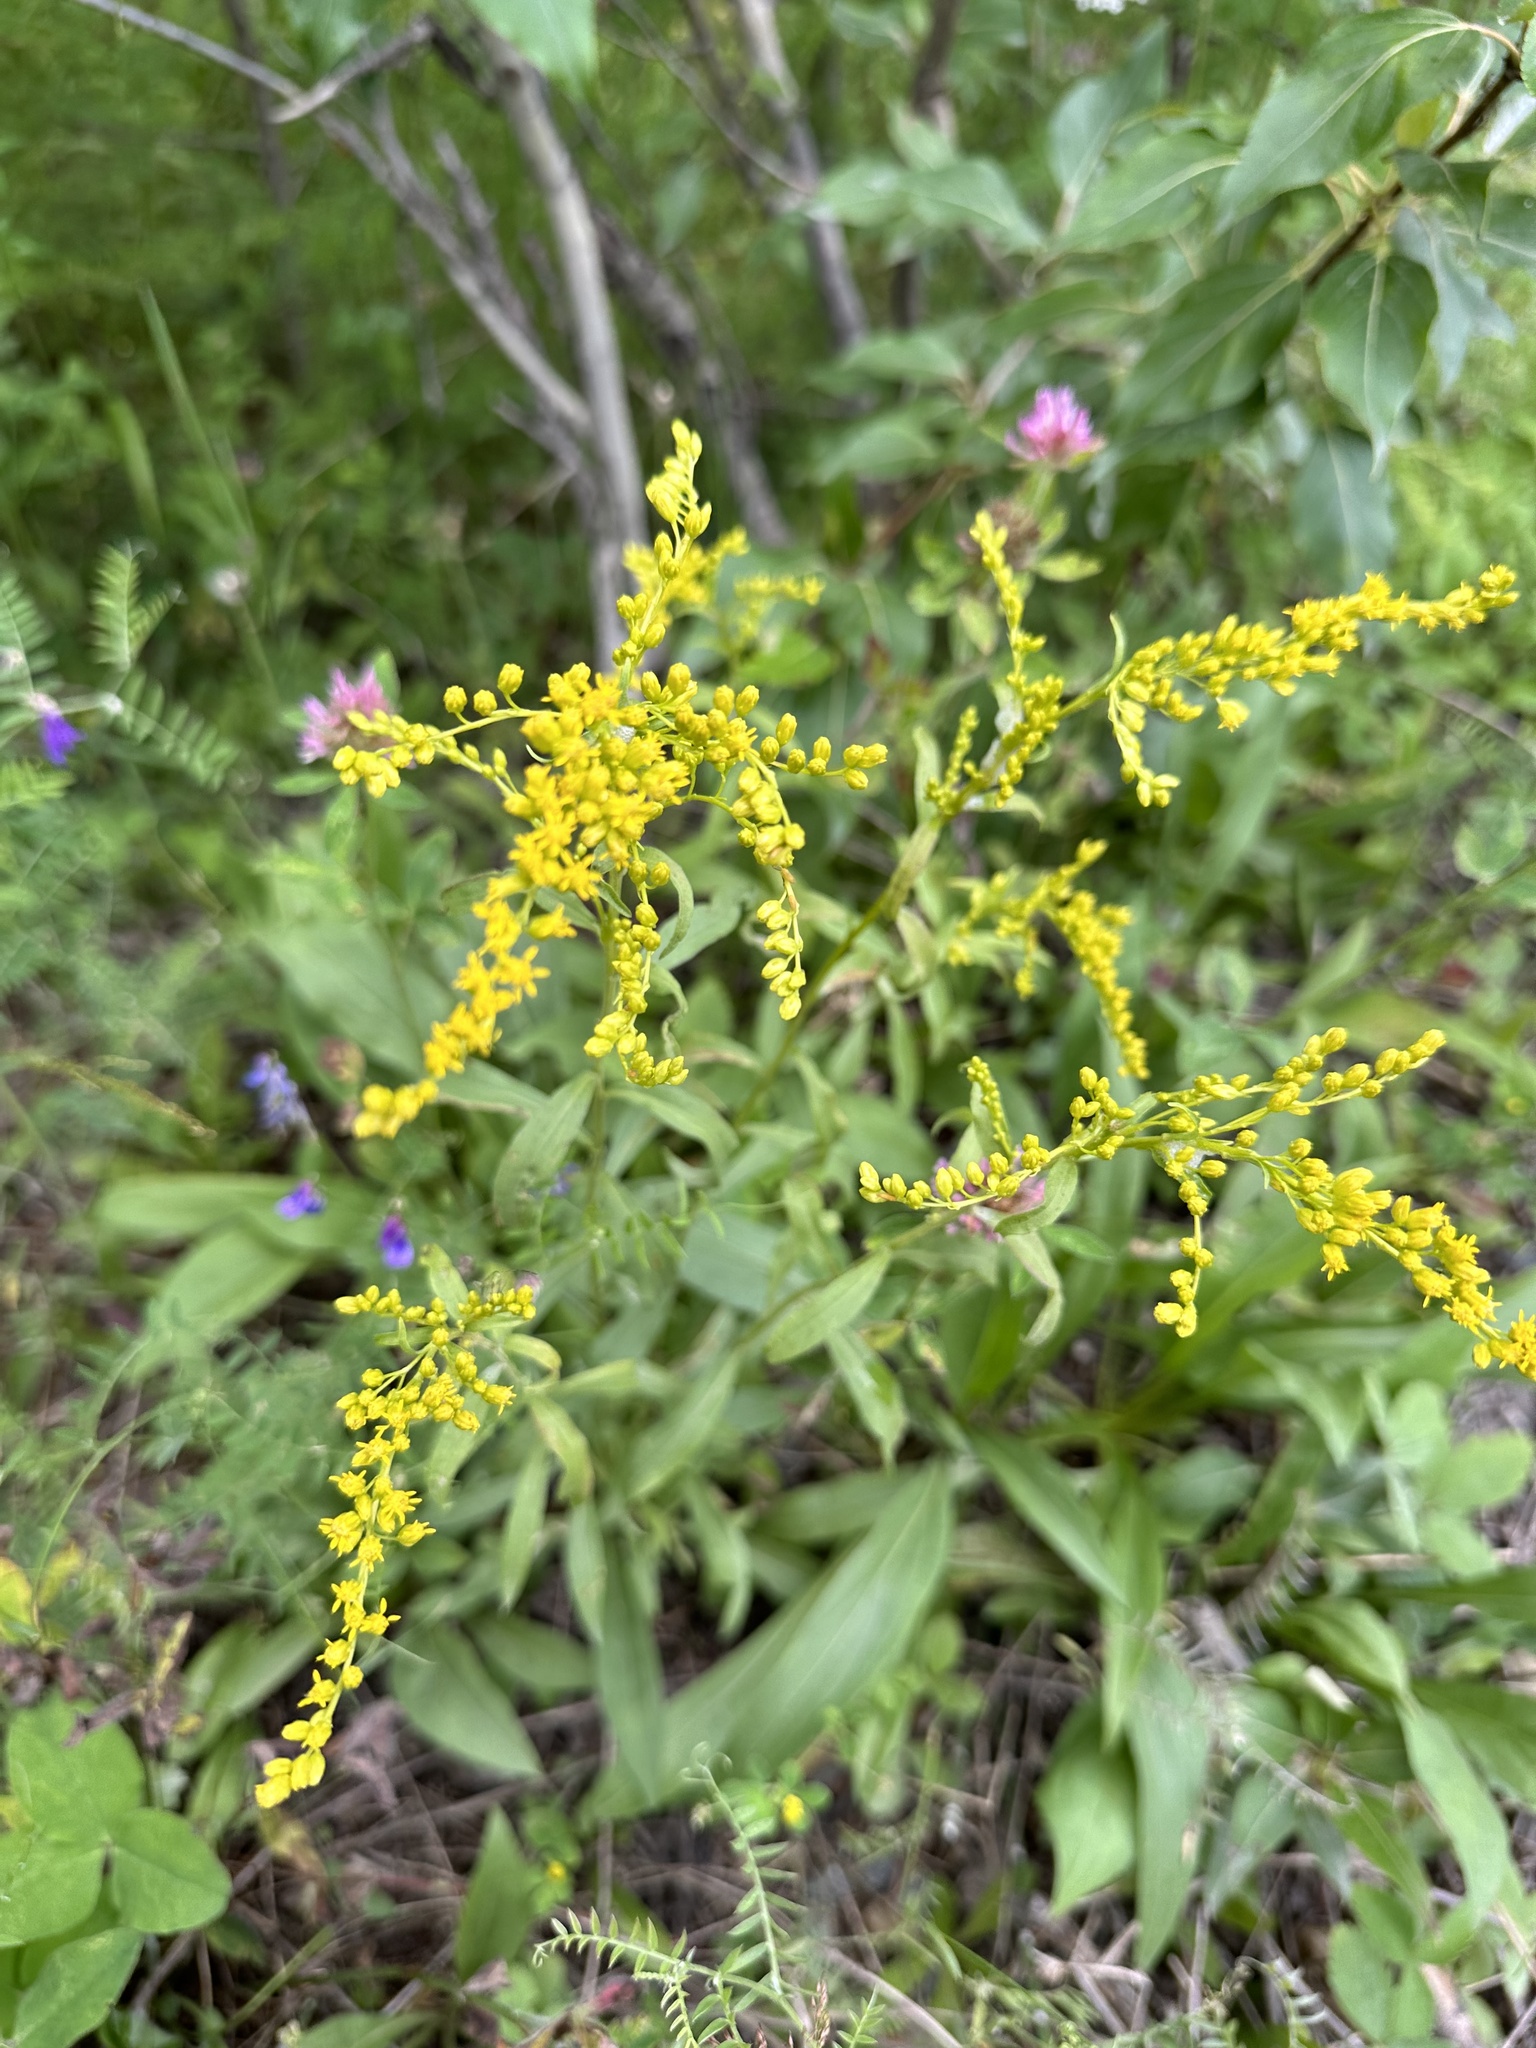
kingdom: Plantae
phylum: Tracheophyta
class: Magnoliopsida
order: Asterales
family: Asteraceae
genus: Solidago
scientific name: Solidago juncea
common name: Early goldenrod
